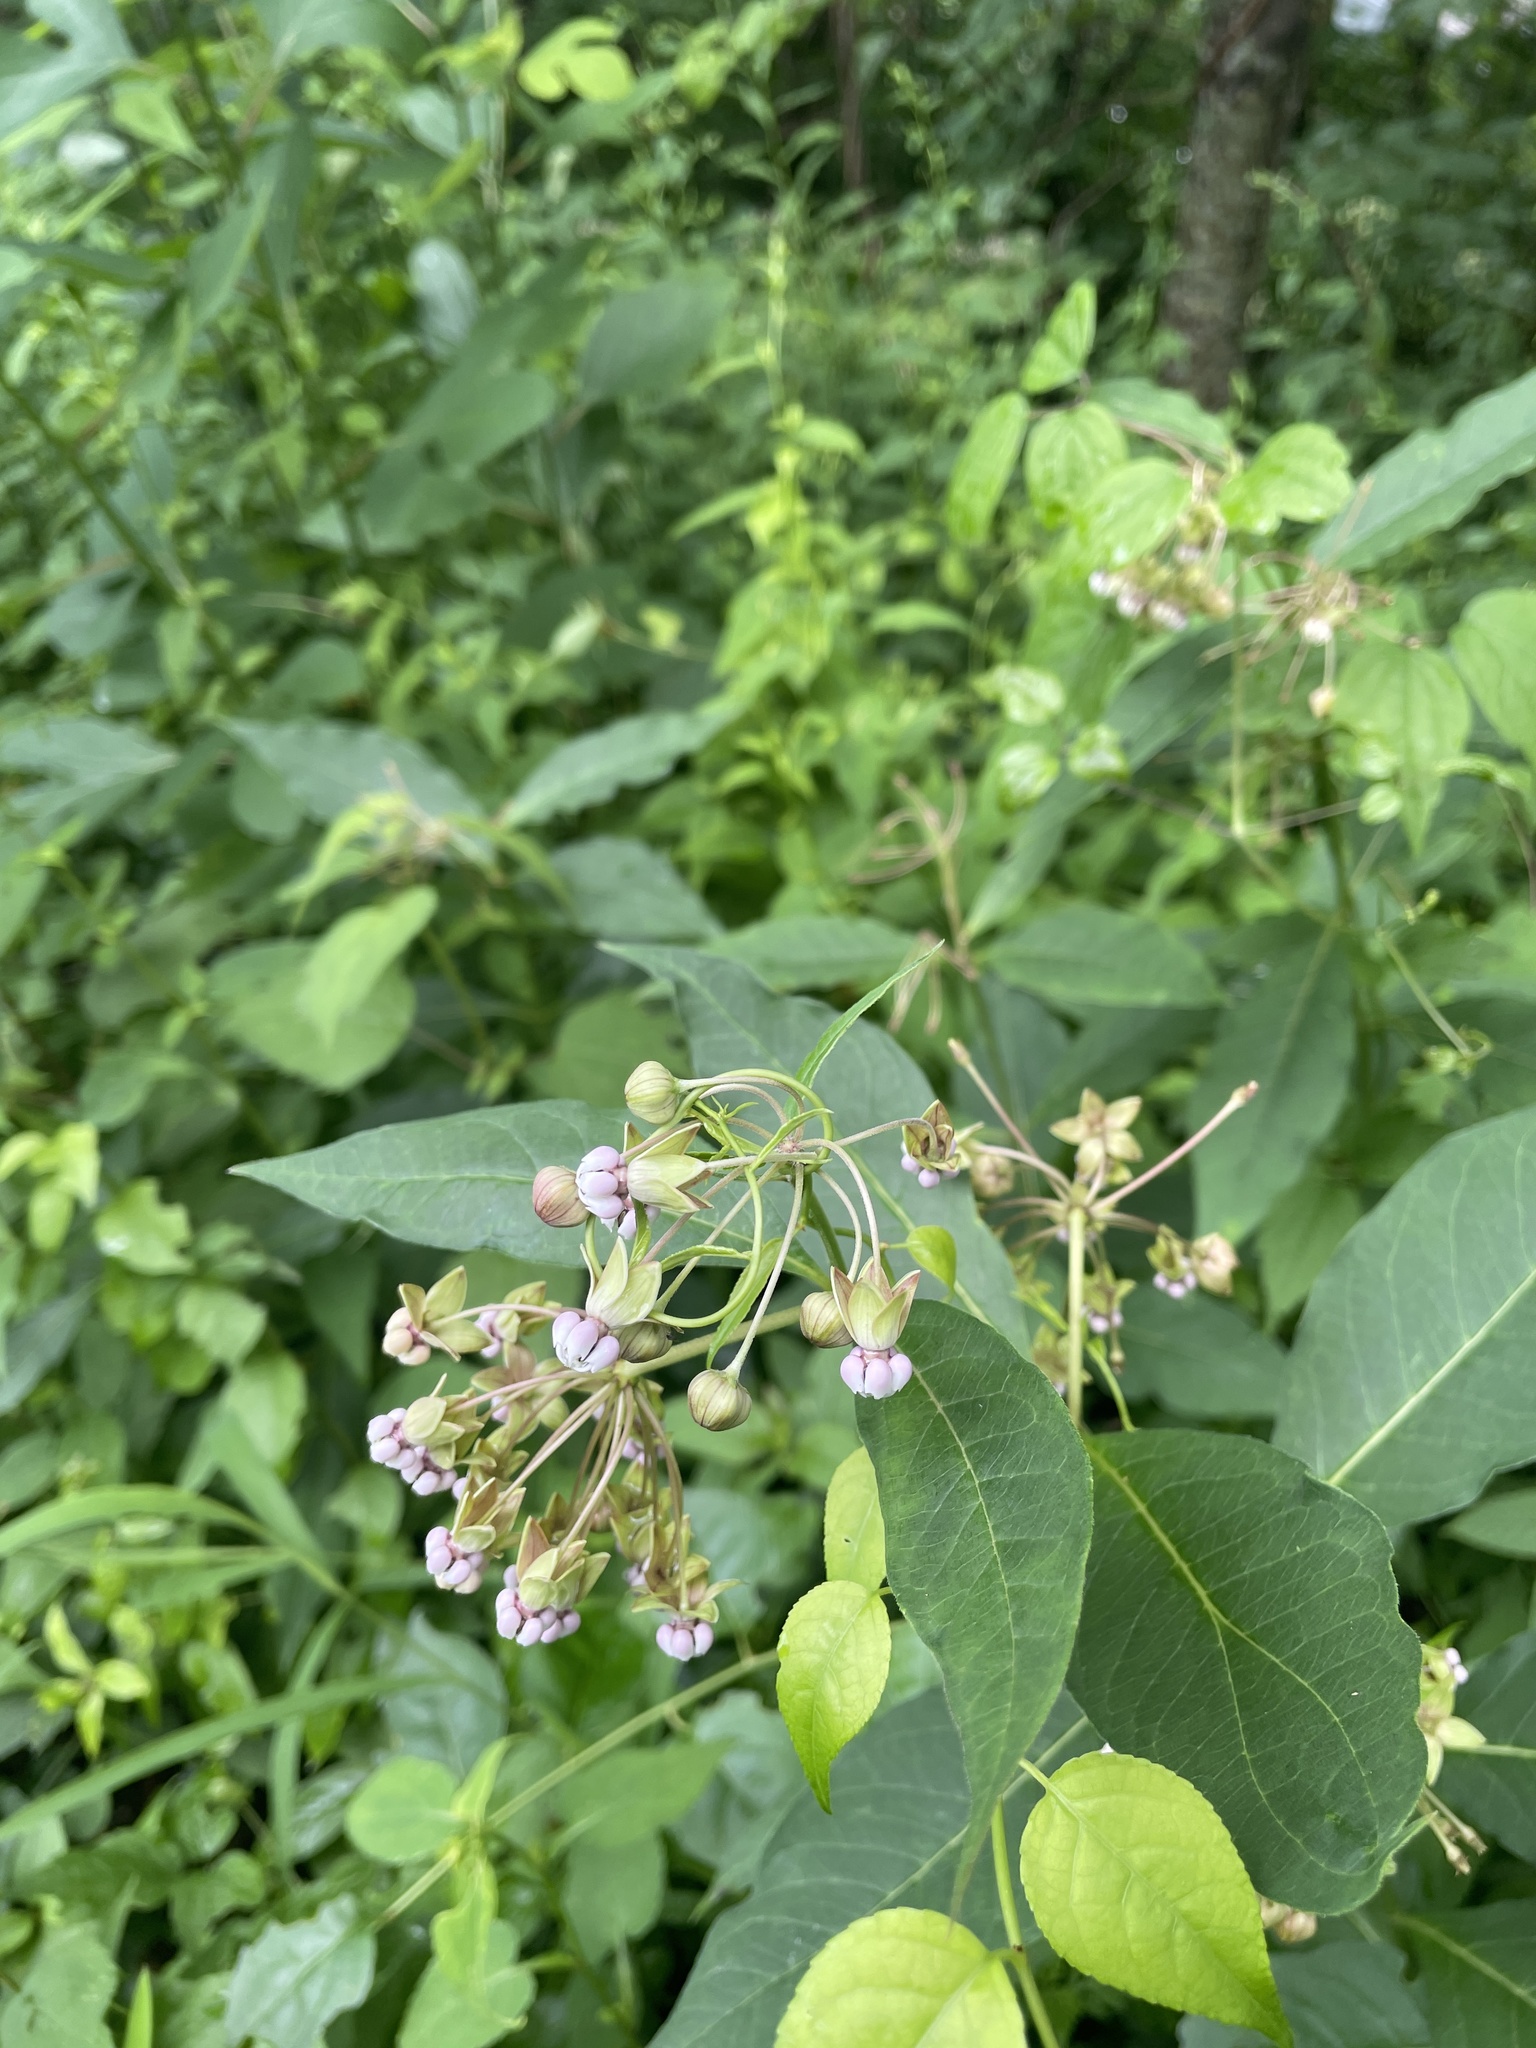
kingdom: Plantae
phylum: Tracheophyta
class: Magnoliopsida
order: Gentianales
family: Apocynaceae
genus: Asclepias
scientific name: Asclepias exaltata
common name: Poke milkweed
